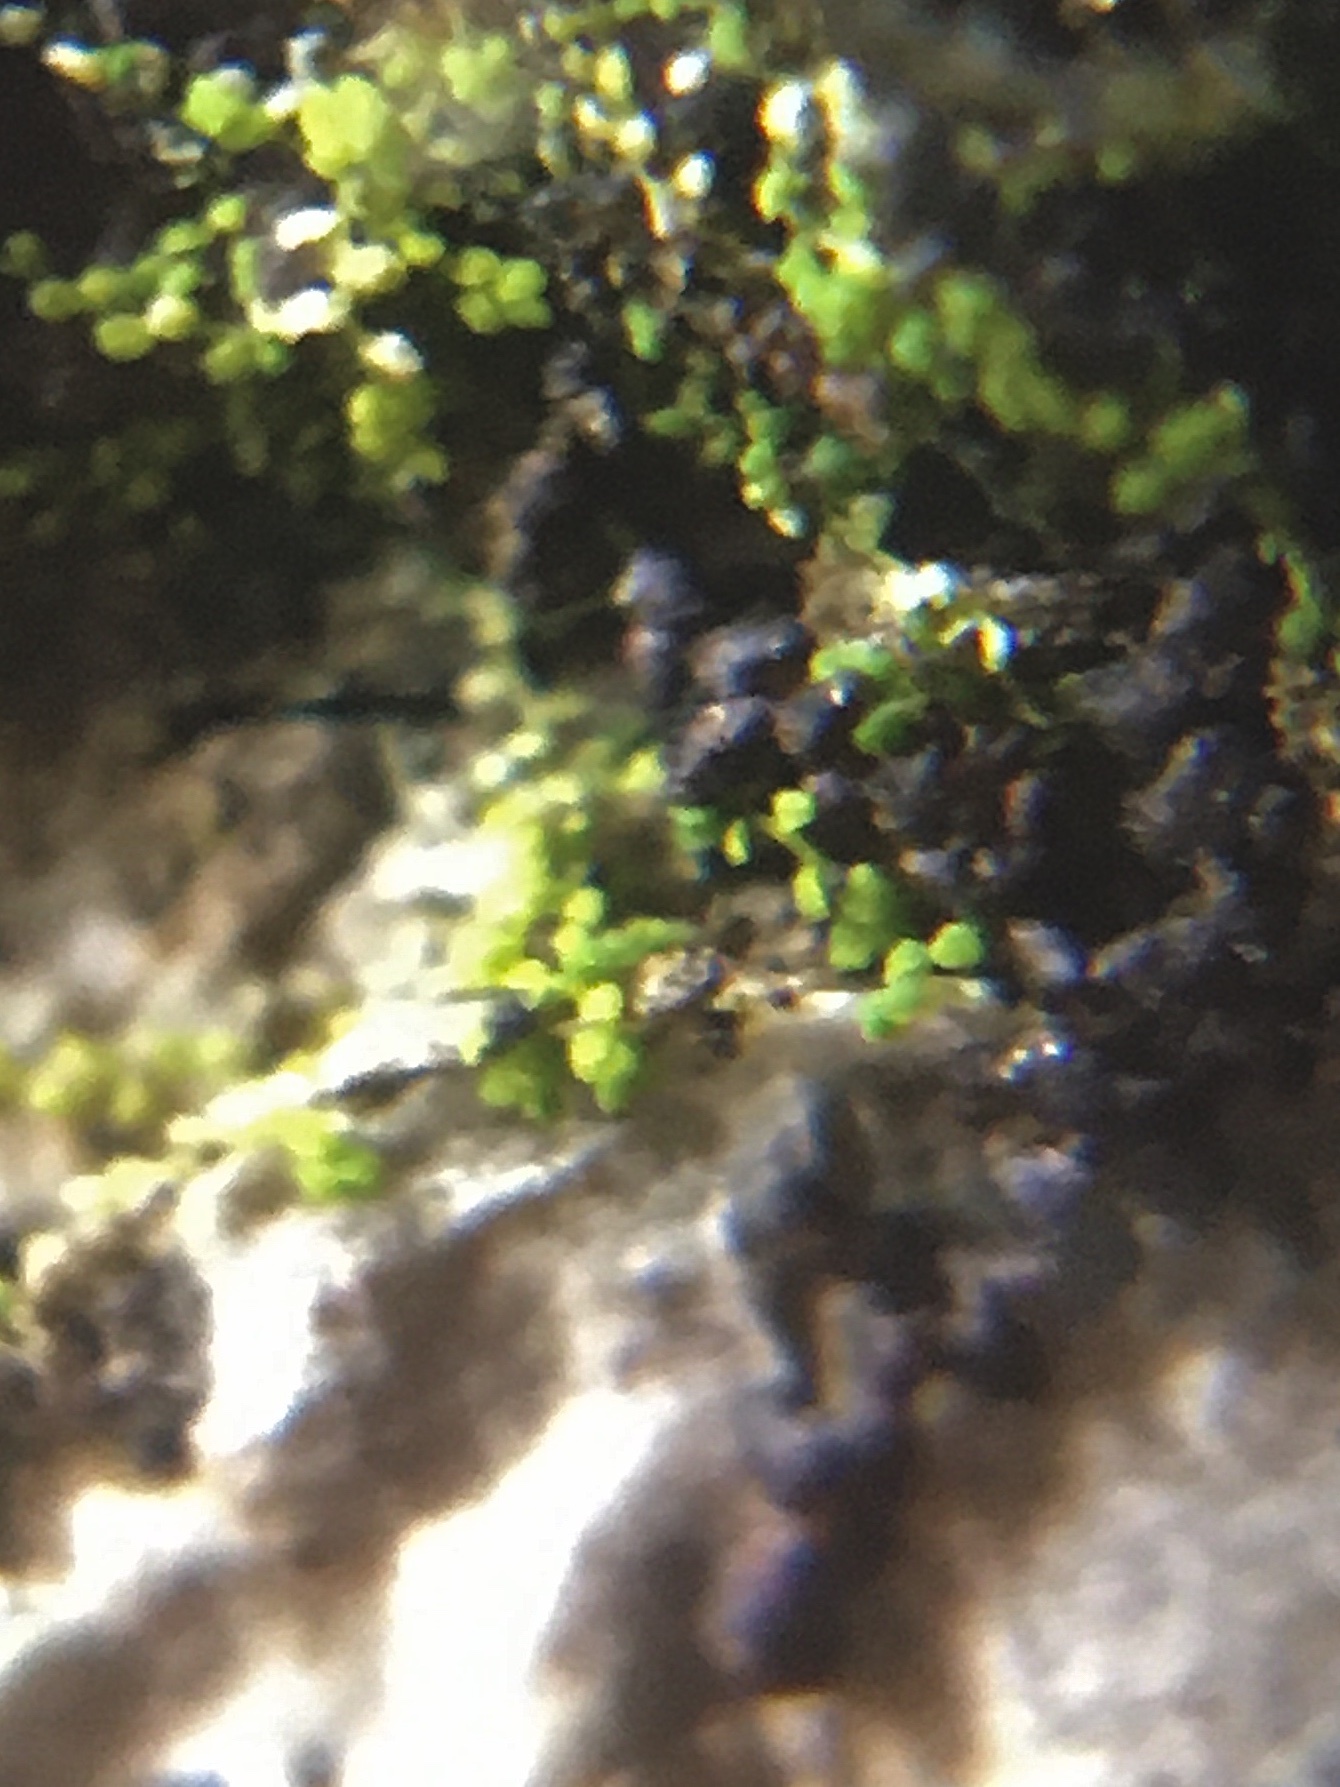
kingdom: Plantae
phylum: Marchantiophyta
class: Jungermanniopsida
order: Porellales
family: Lejeuneaceae
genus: Myriocoleopsis
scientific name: Myriocoleopsis minutissima
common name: Minute pouncewort
